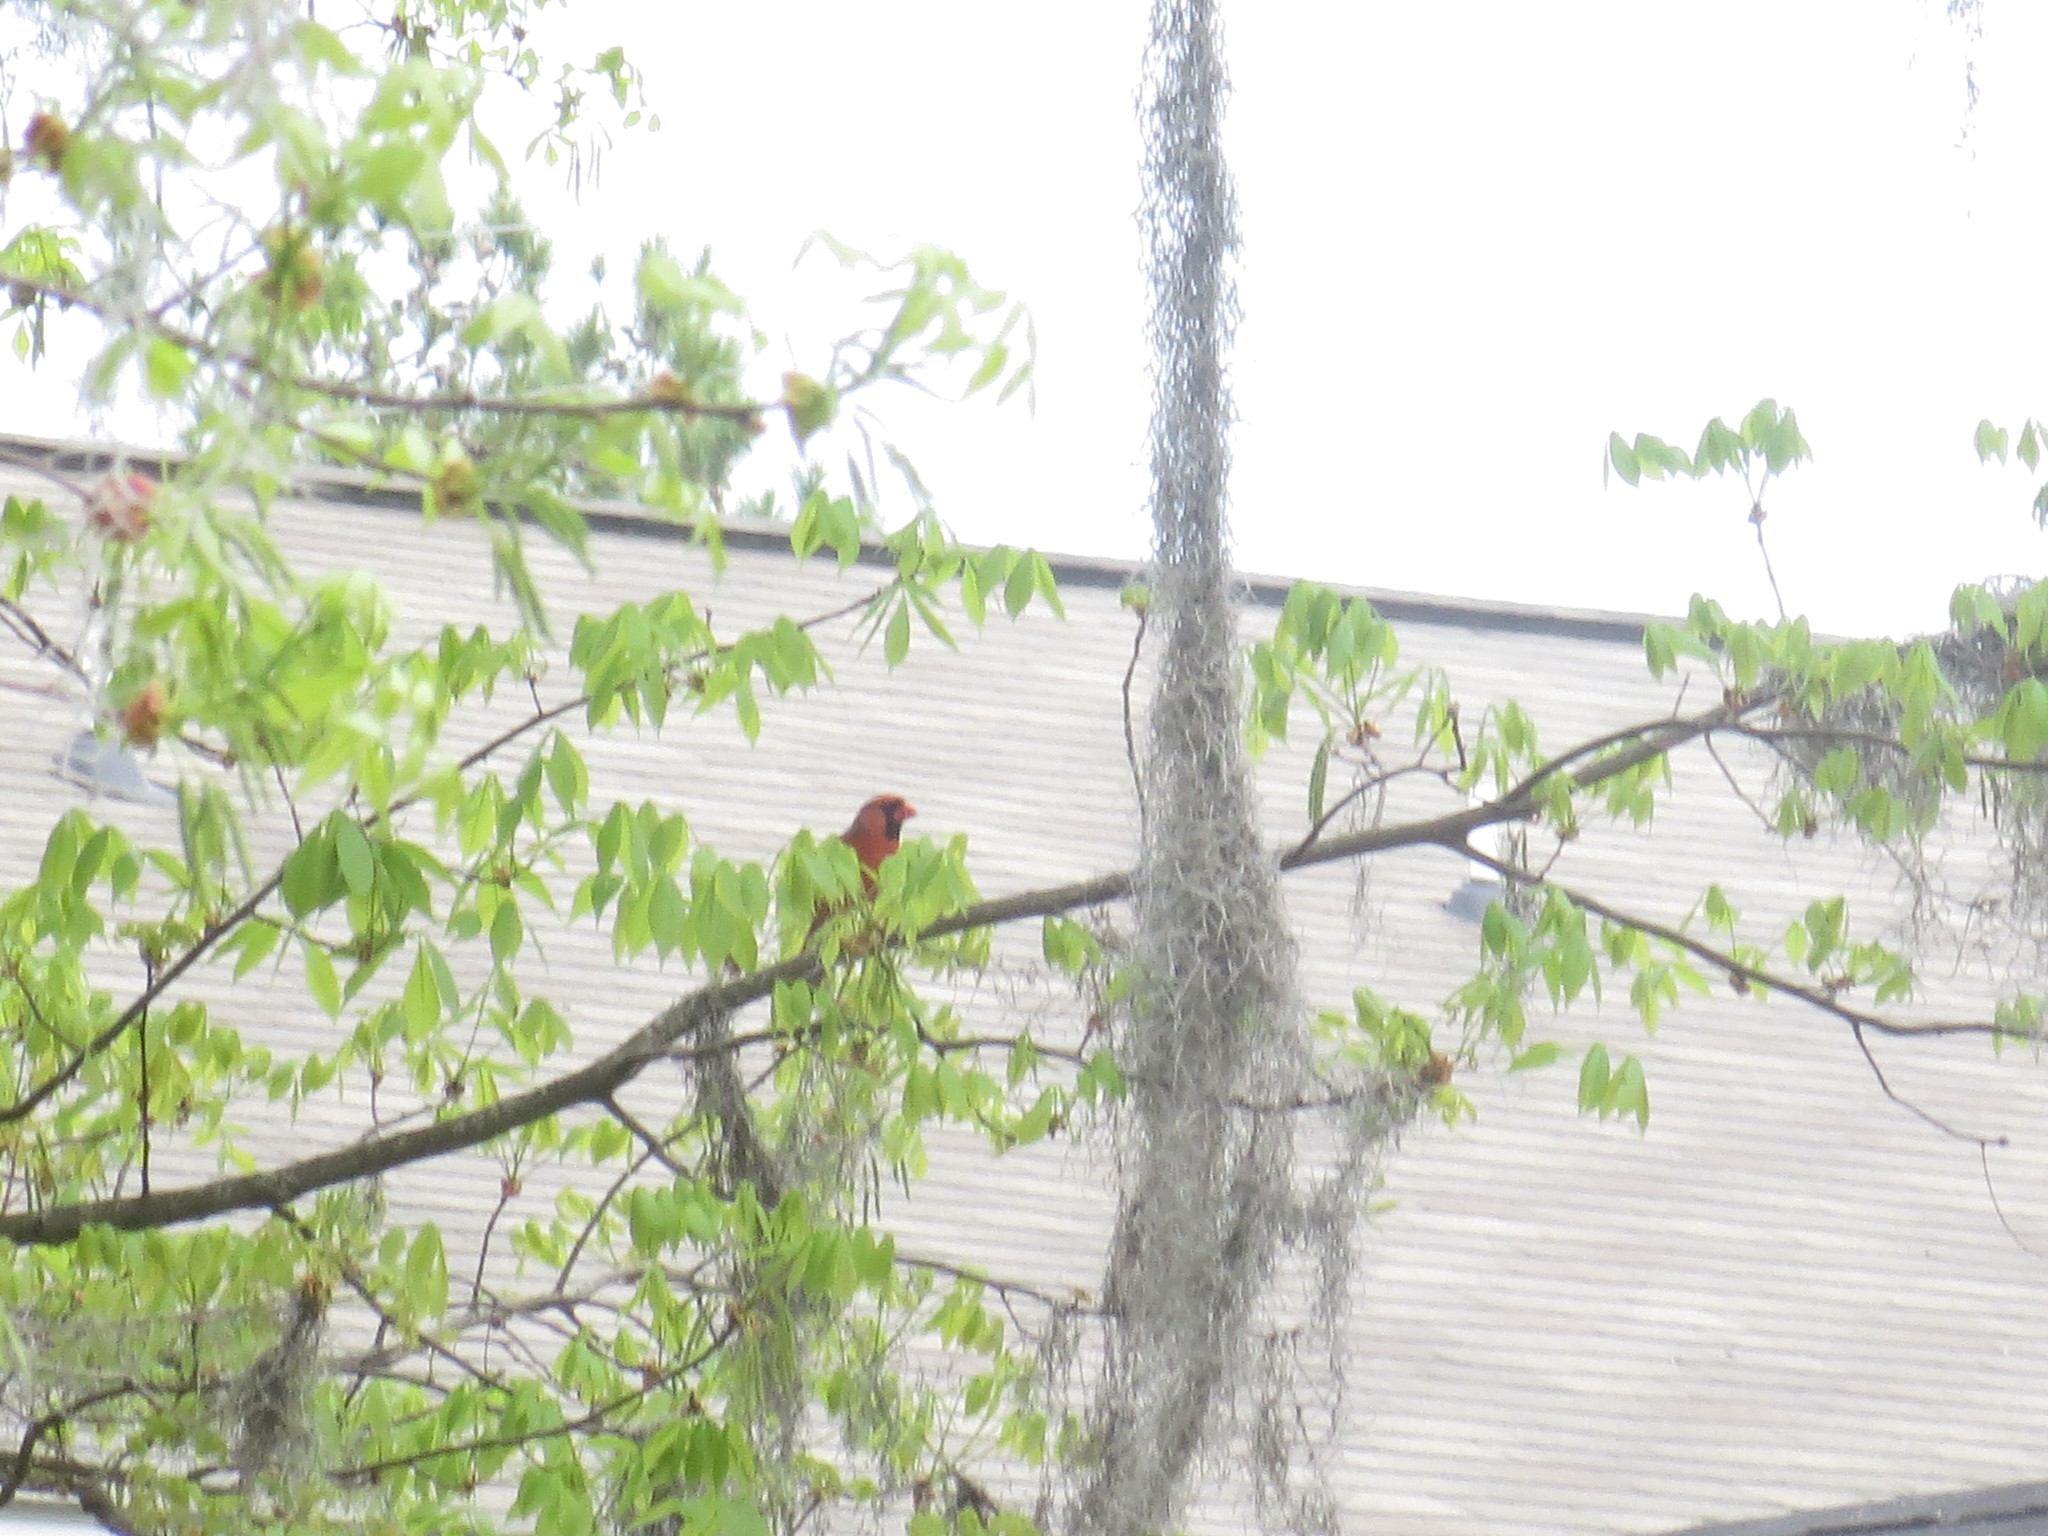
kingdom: Animalia
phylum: Chordata
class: Aves
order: Passeriformes
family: Cardinalidae
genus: Cardinalis
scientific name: Cardinalis cardinalis
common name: Northern cardinal
